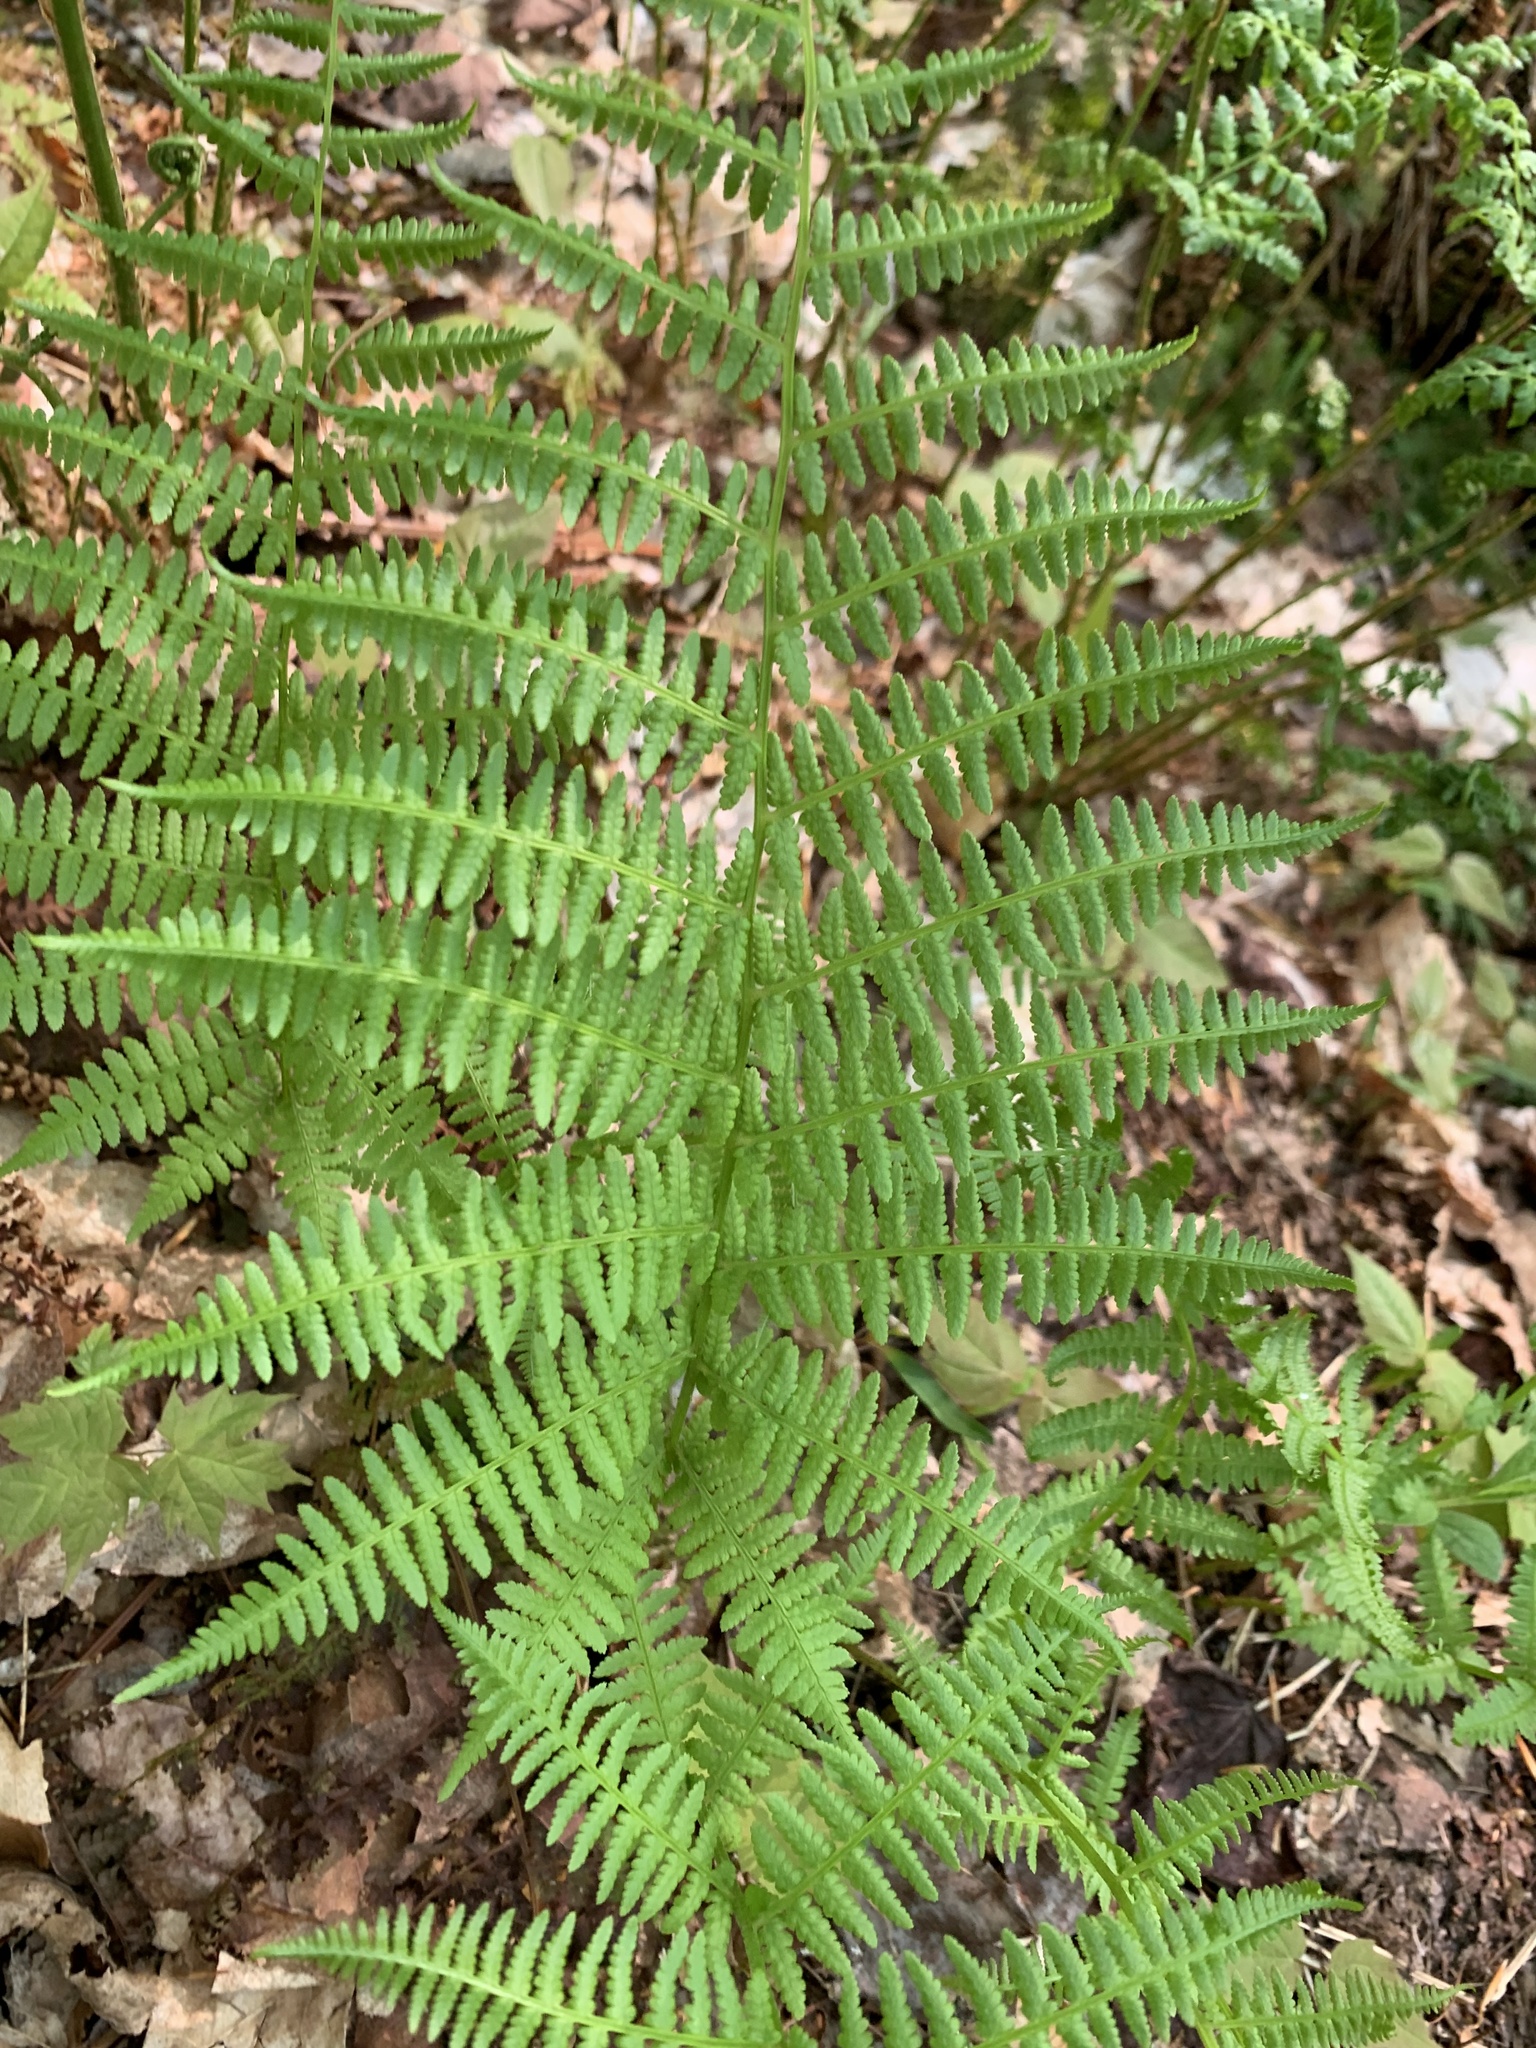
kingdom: Plantae
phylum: Tracheophyta
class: Polypodiopsida
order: Polypodiales
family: Athyriaceae
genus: Athyrium
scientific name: Athyrium angustum
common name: Northern lady fern
